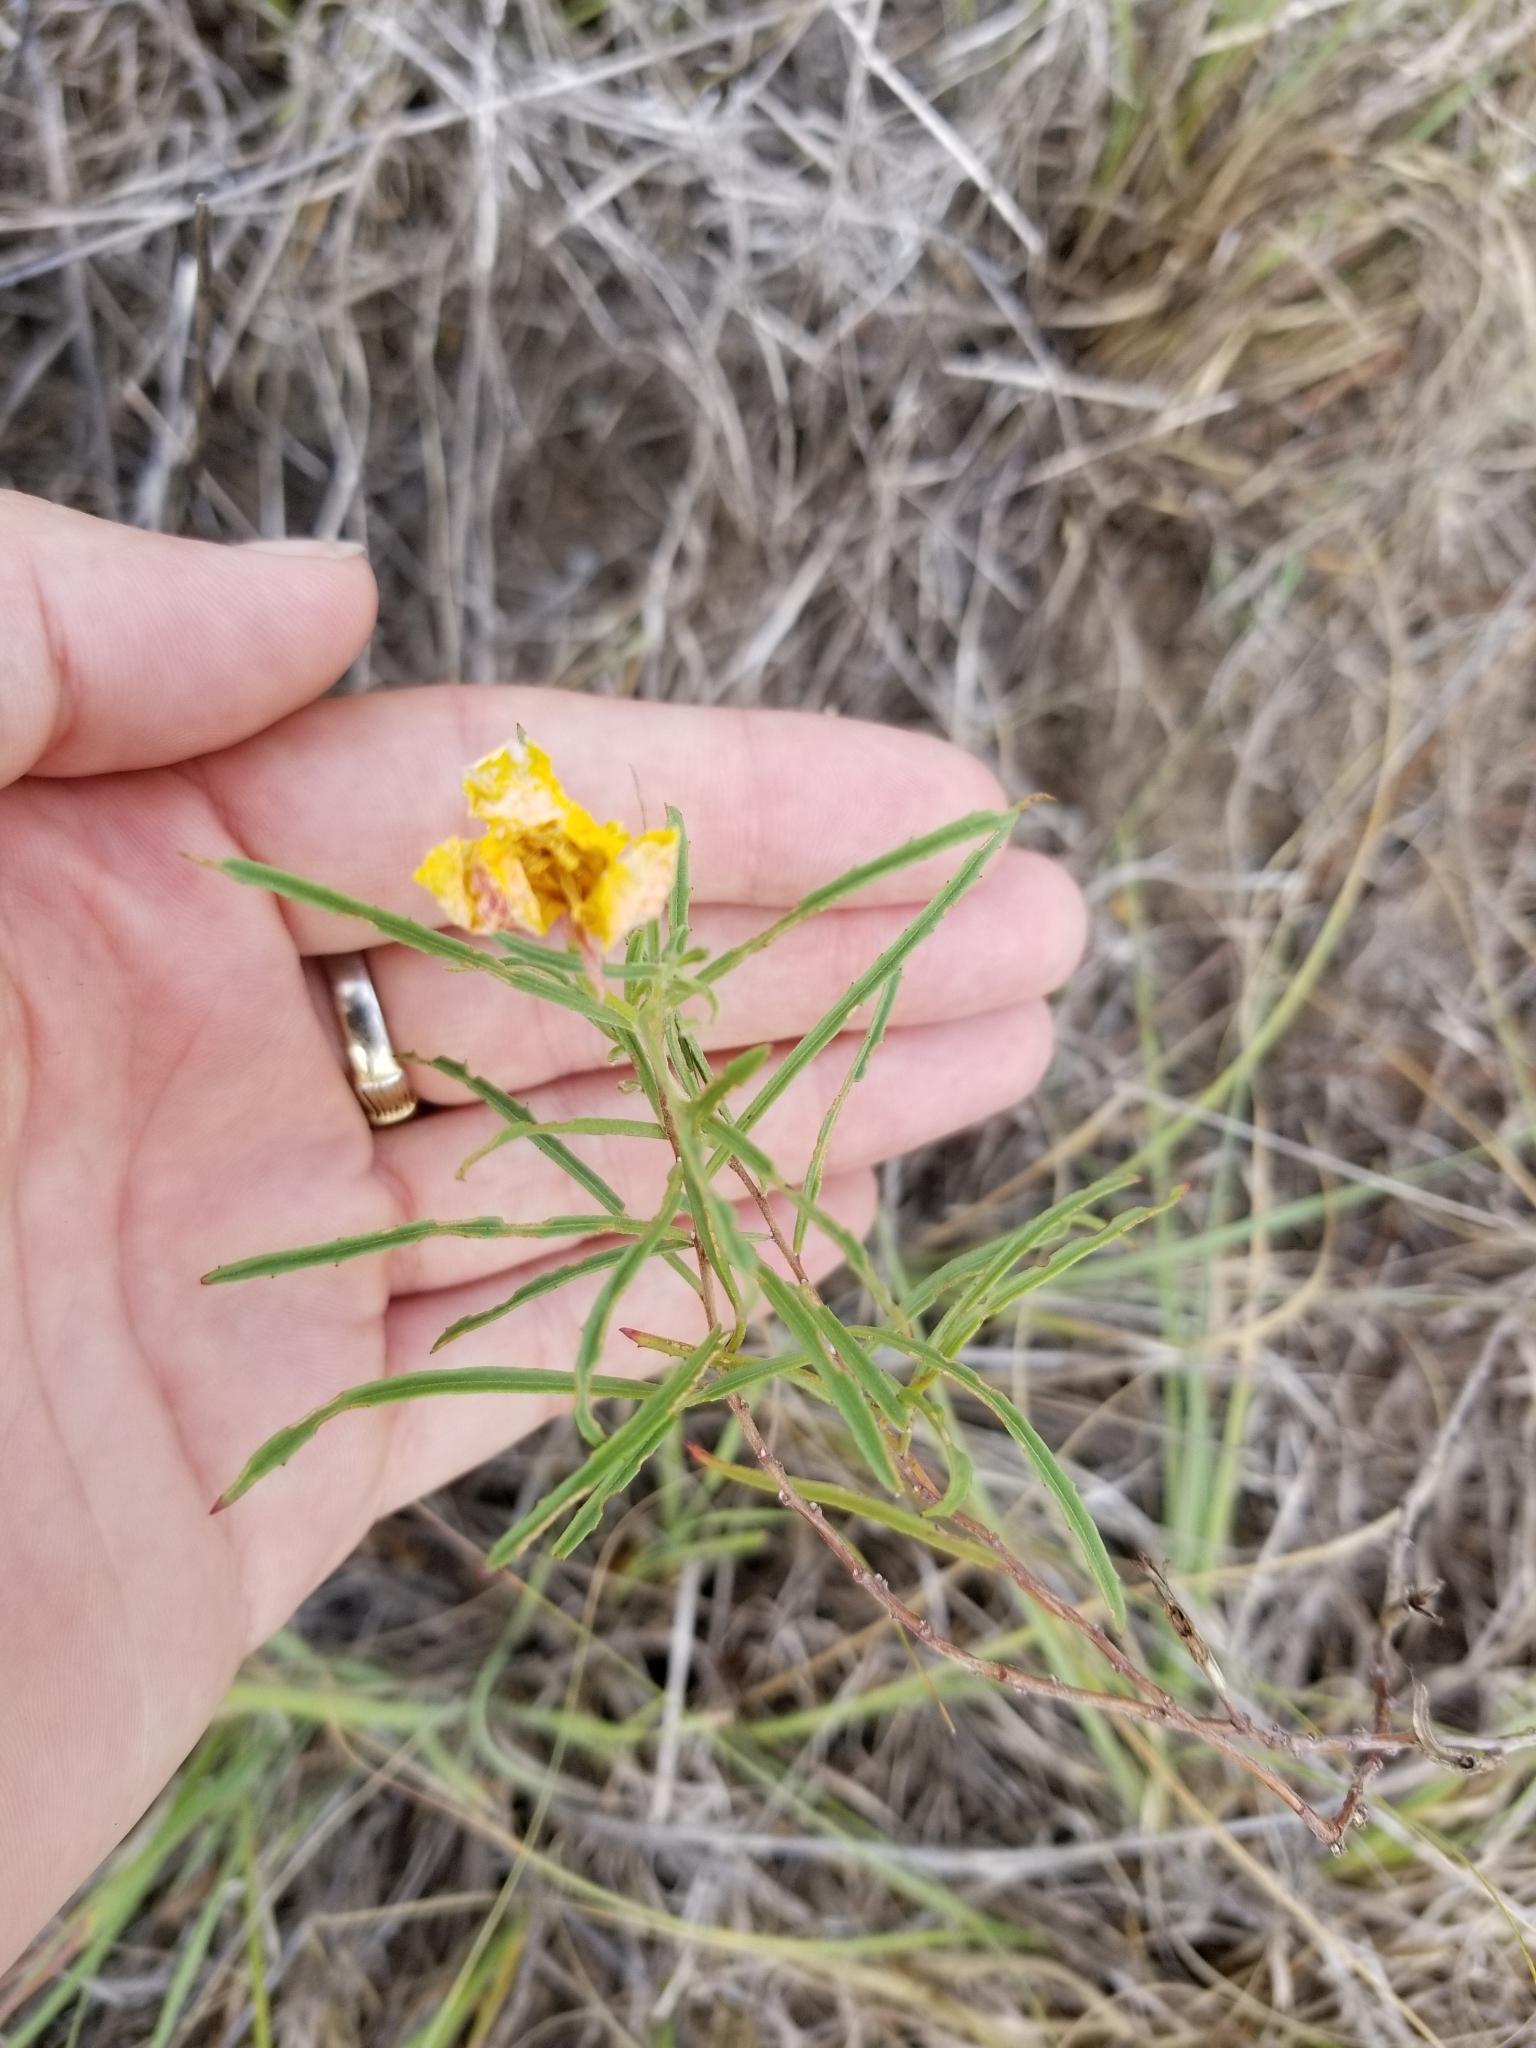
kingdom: Plantae
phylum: Tracheophyta
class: Magnoliopsida
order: Myrtales
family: Onagraceae
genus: Oenothera
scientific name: Oenothera
